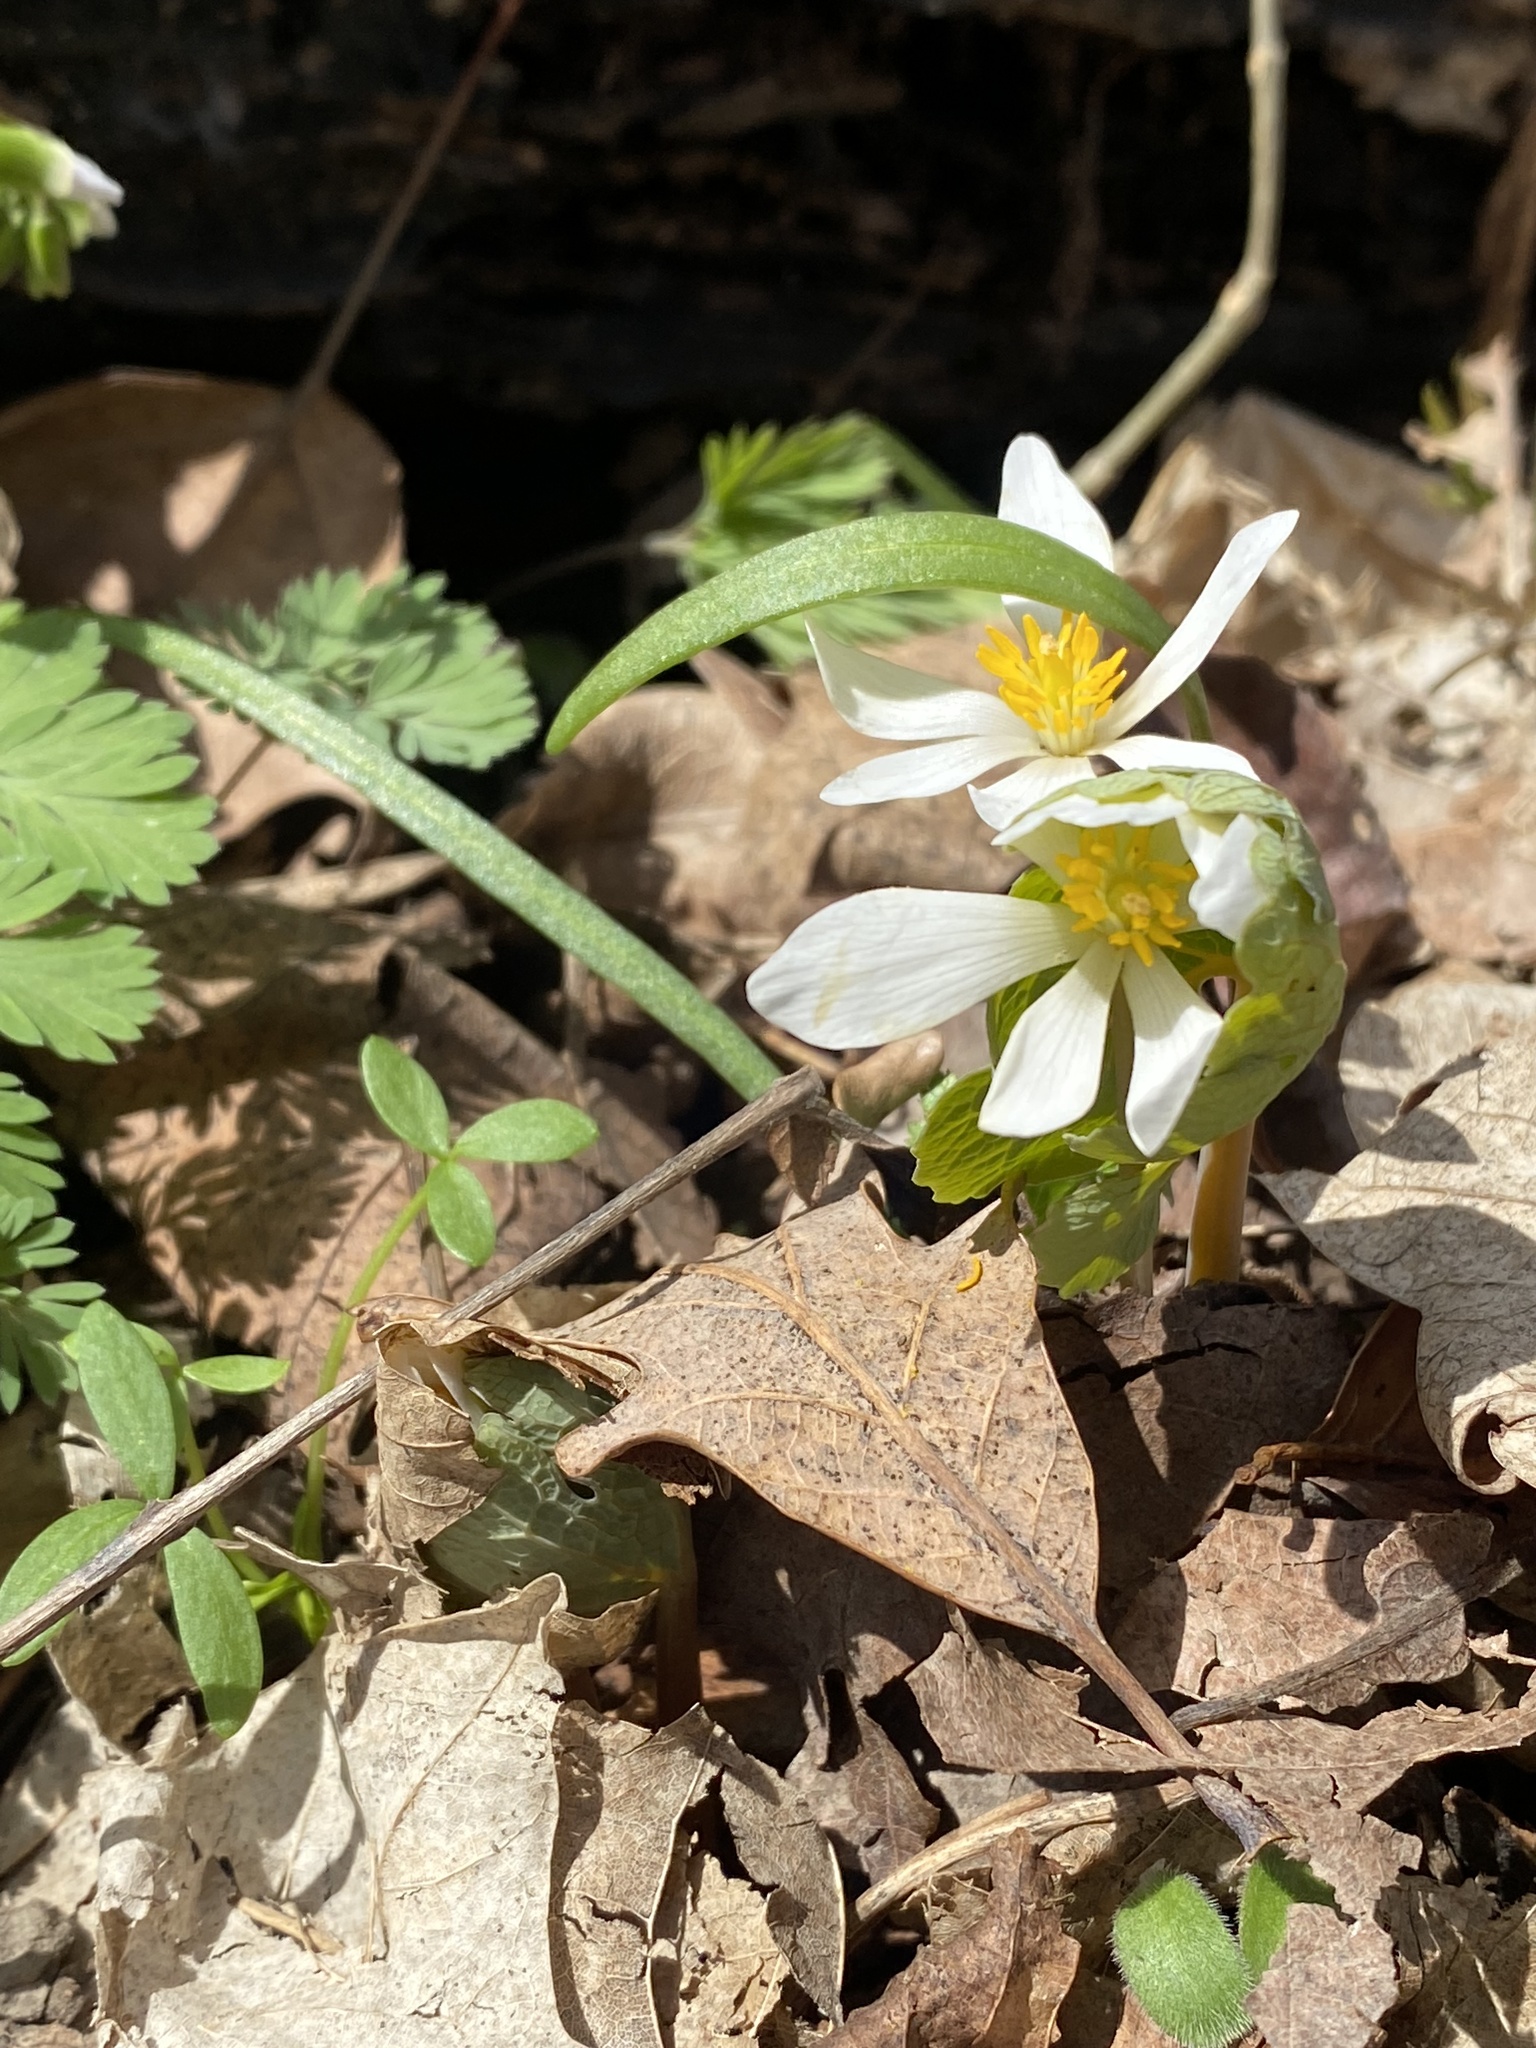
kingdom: Plantae
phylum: Tracheophyta
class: Magnoliopsida
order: Ranunculales
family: Papaveraceae
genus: Sanguinaria
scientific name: Sanguinaria canadensis
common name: Bloodroot
